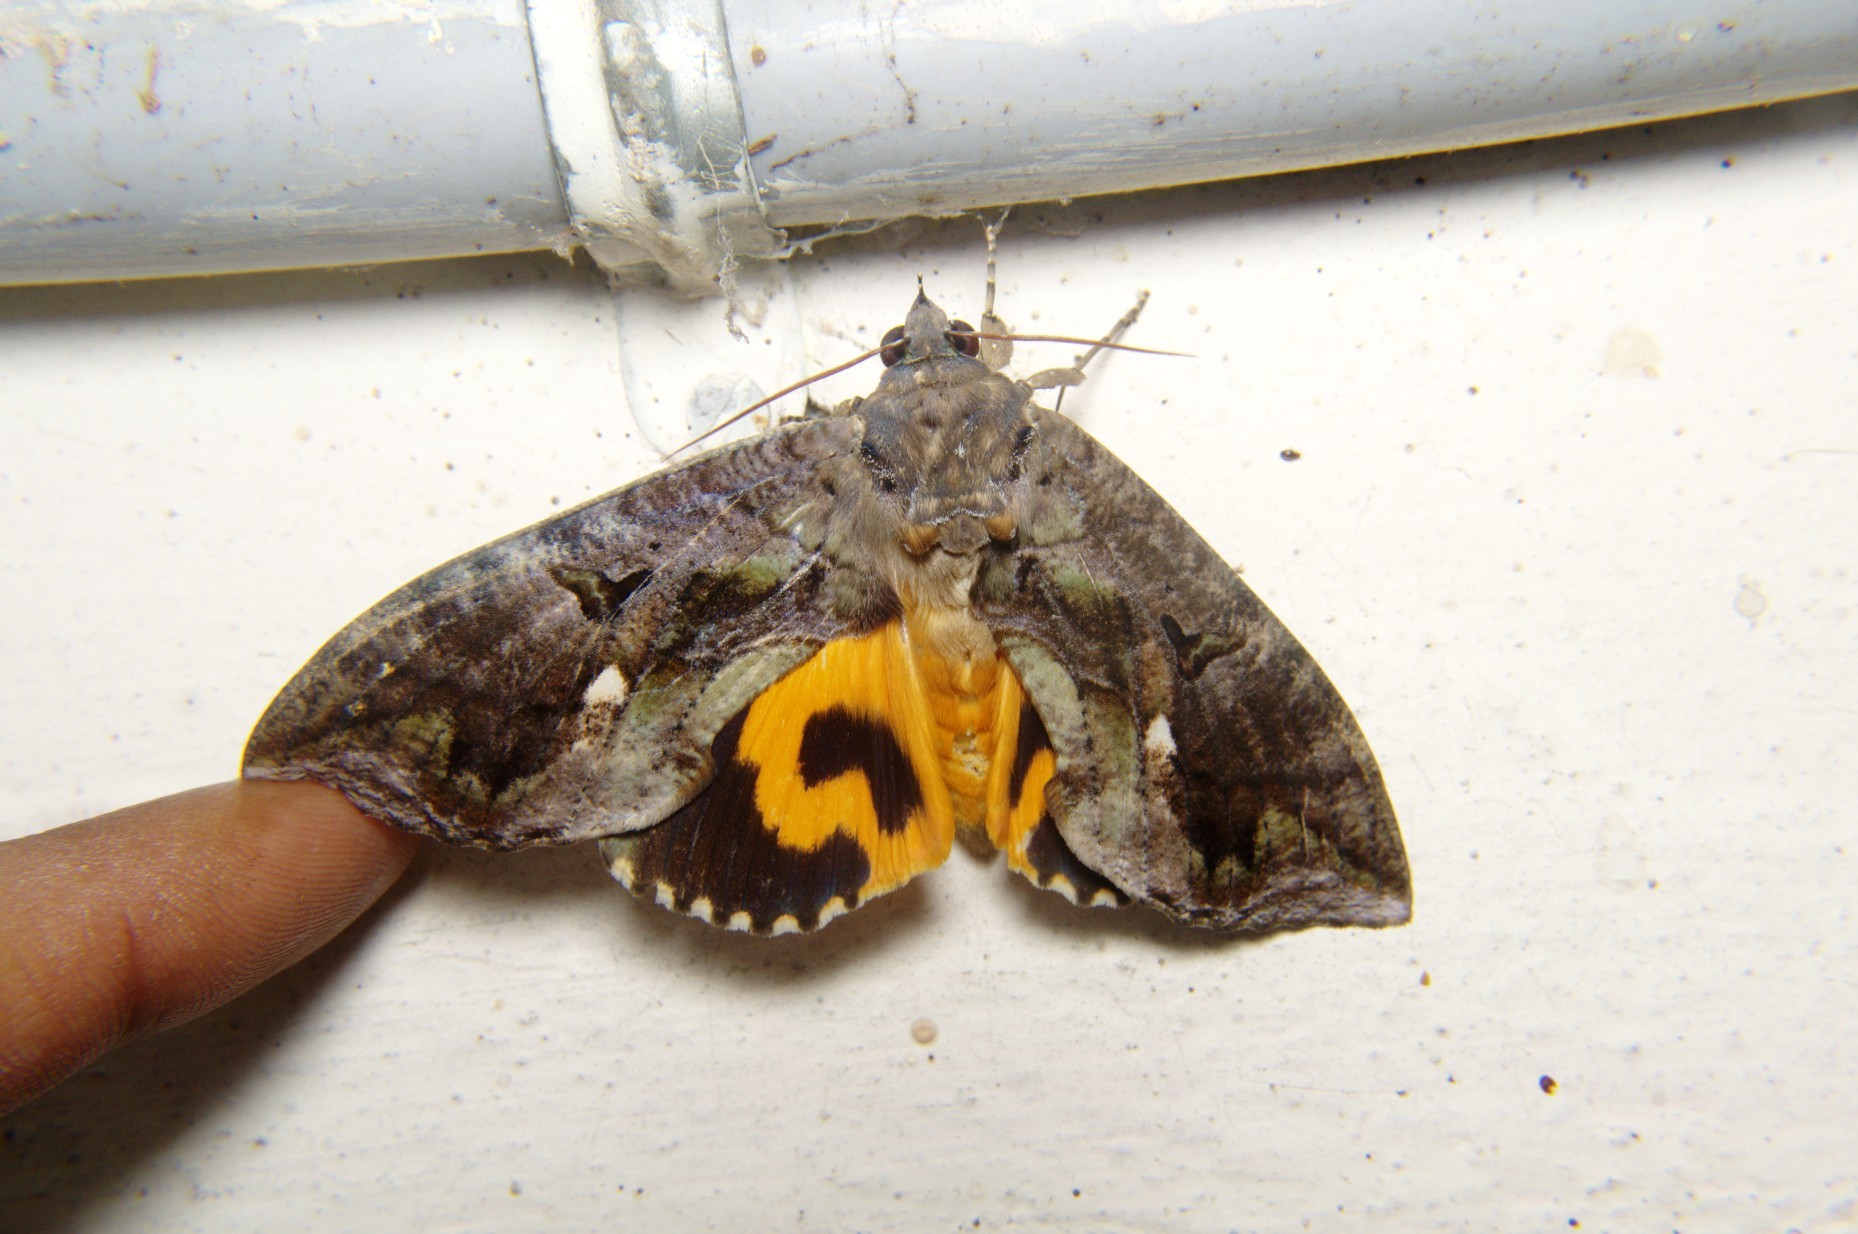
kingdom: Animalia
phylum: Arthropoda
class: Insecta
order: Lepidoptera
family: Erebidae
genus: Eudocima
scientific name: Eudocima phalonia
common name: Wasp
